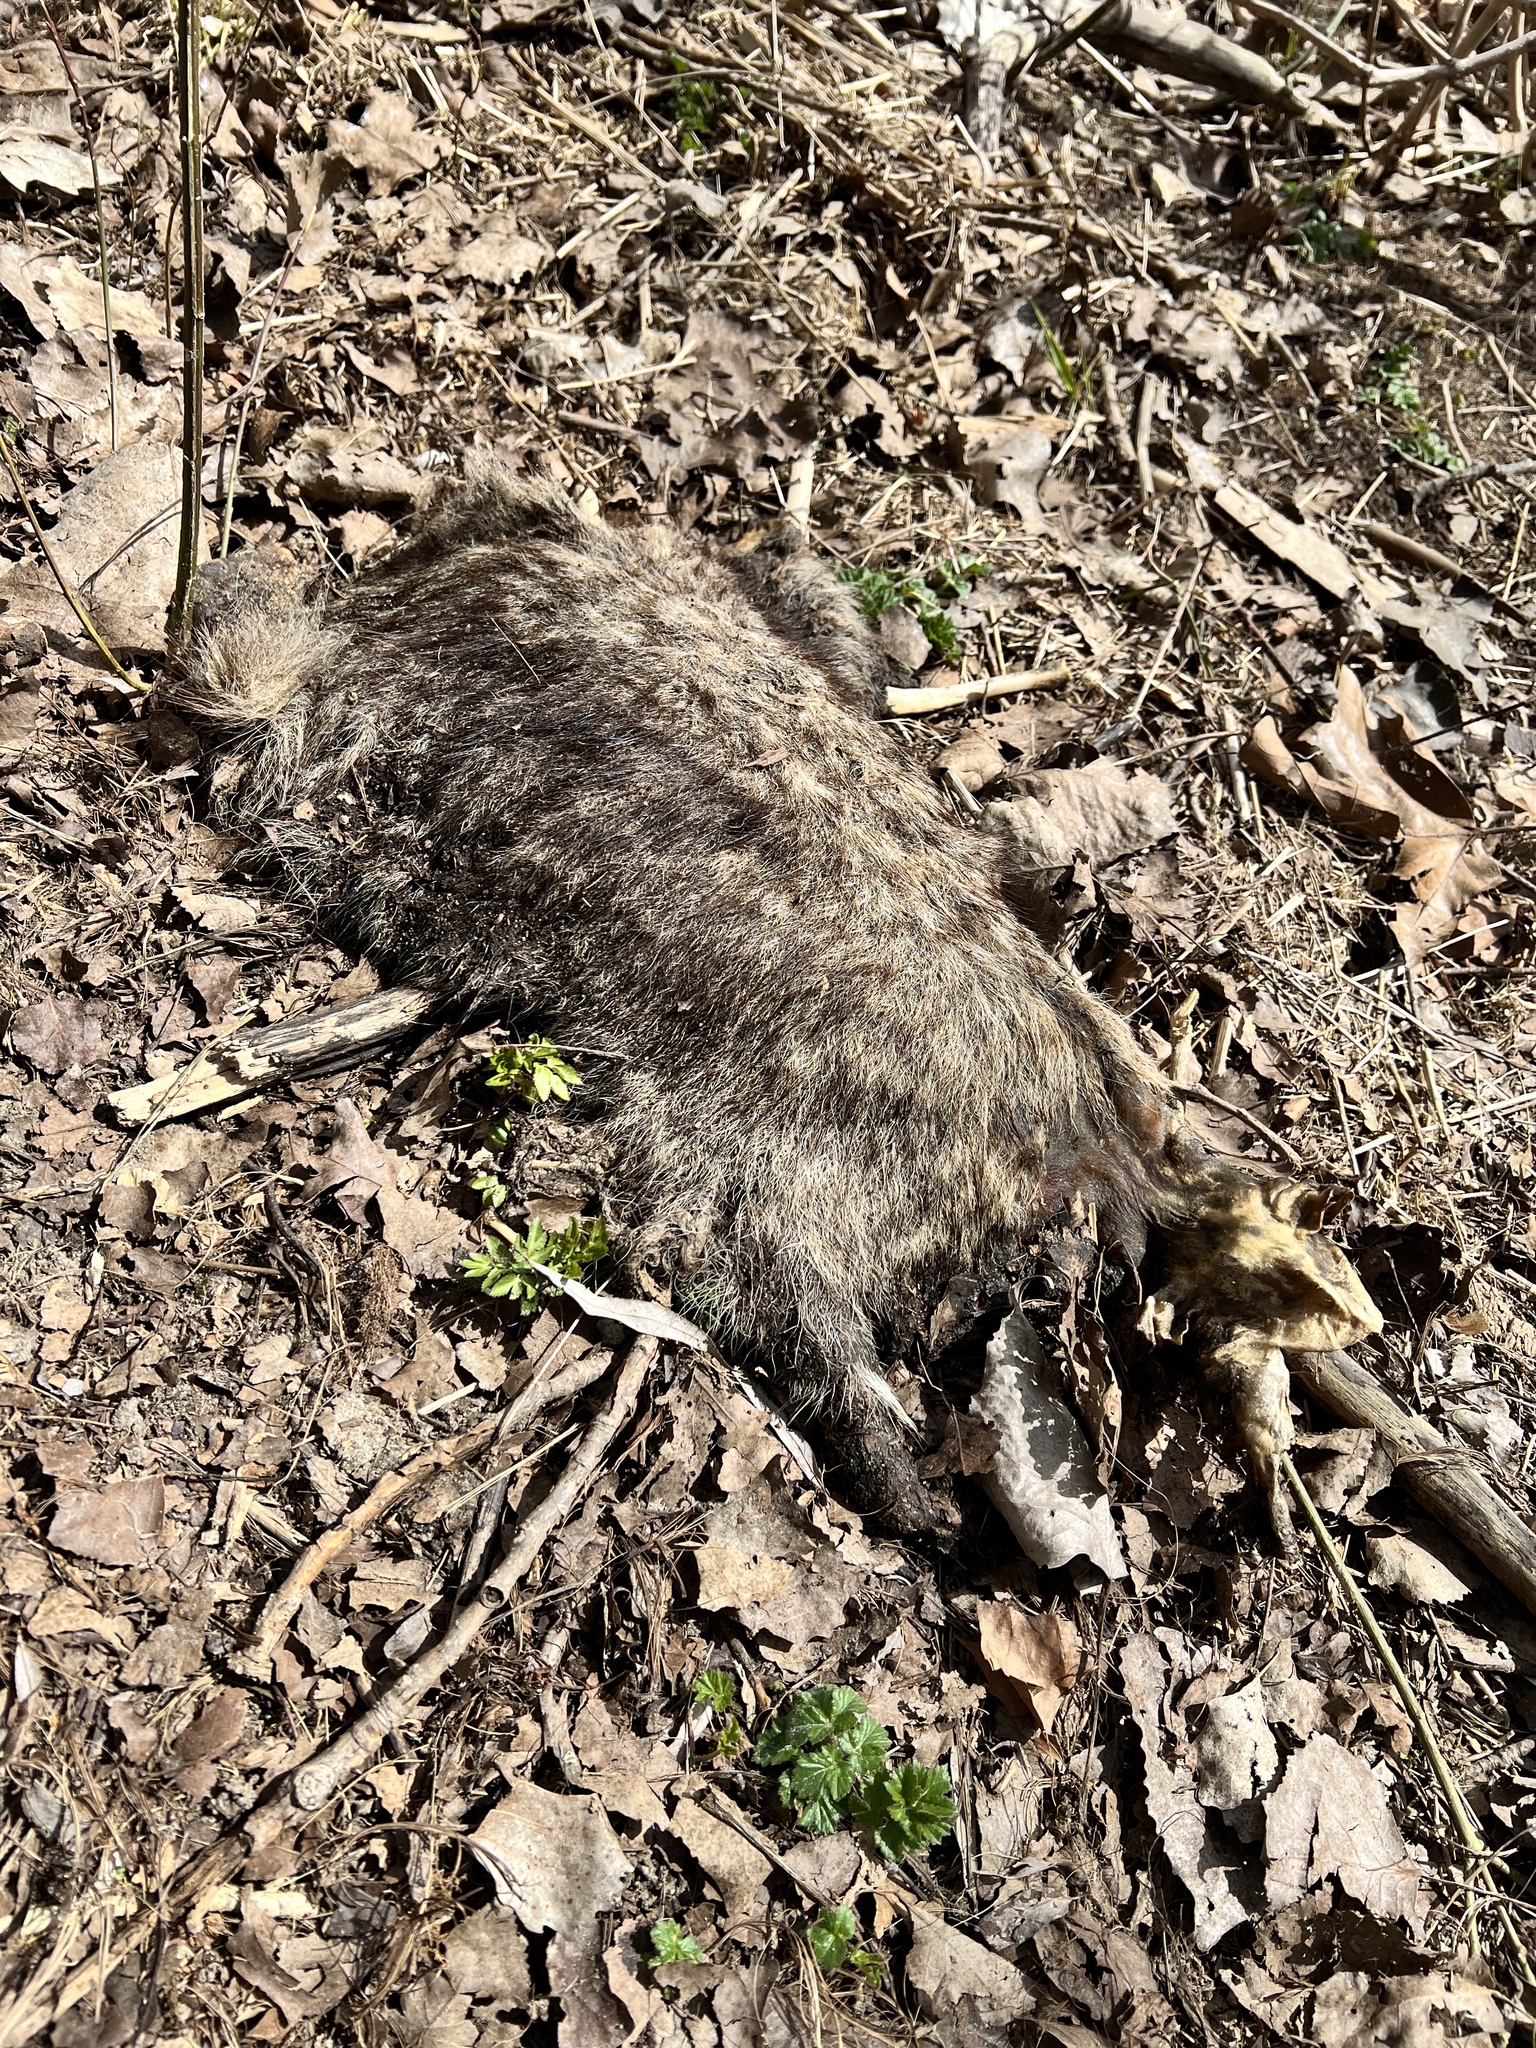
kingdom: Animalia
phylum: Chordata
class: Mammalia
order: Rodentia
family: Sciuridae
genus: Marmota
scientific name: Marmota monax
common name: Groundhog
